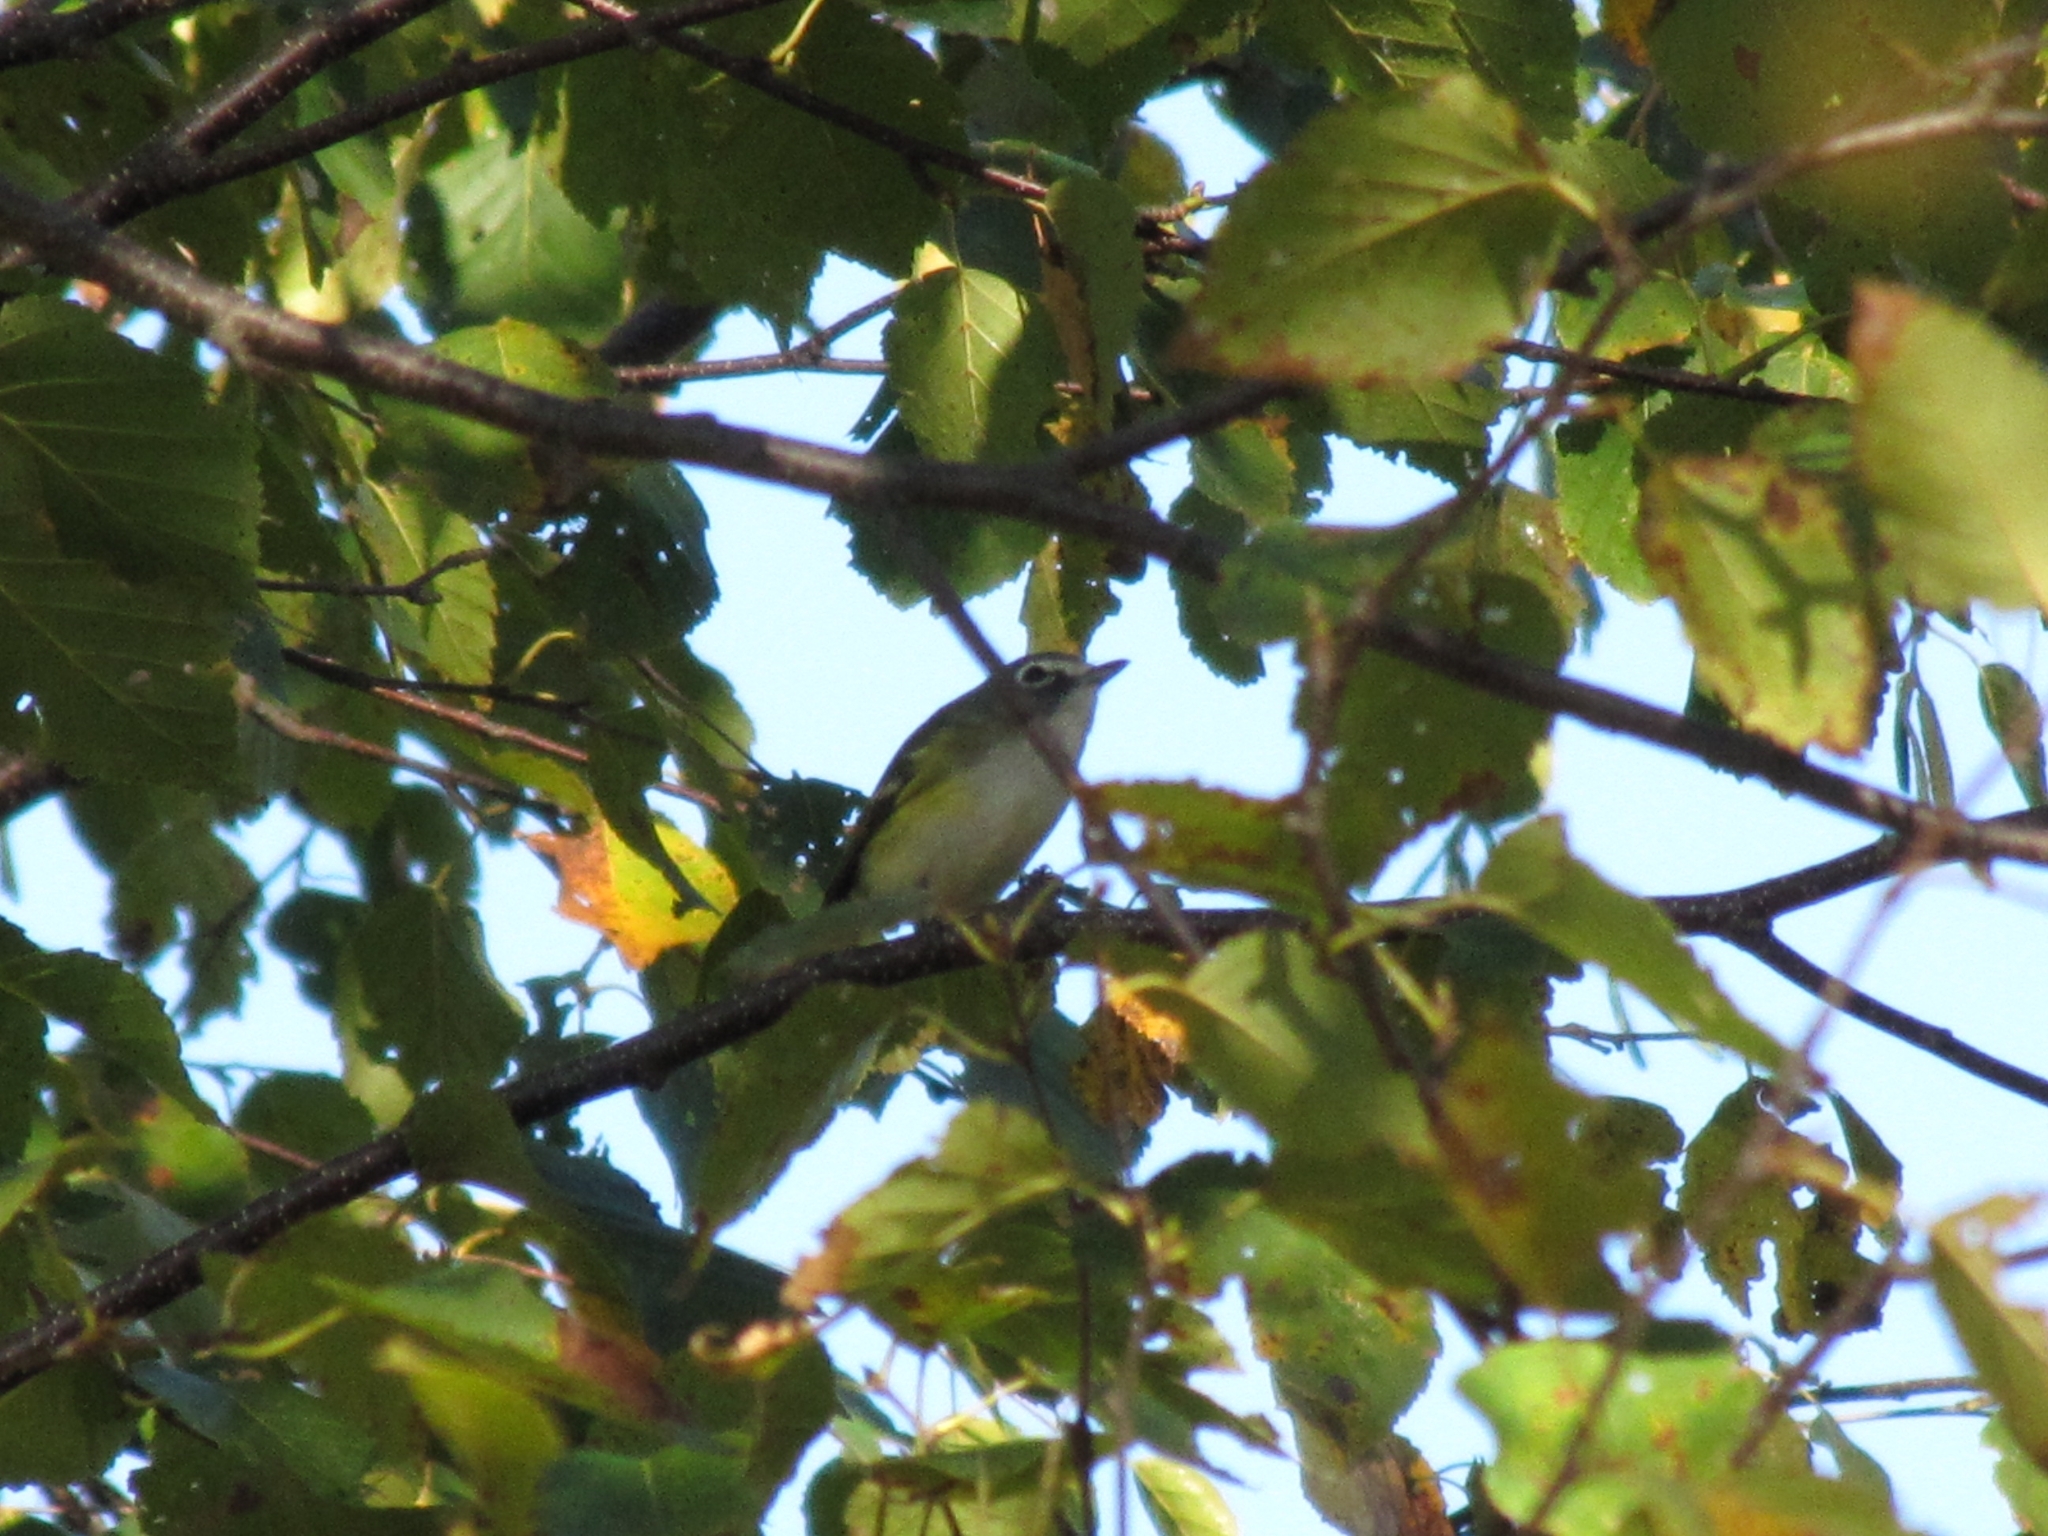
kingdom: Animalia
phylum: Chordata
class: Aves
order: Passeriformes
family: Vireonidae
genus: Vireo
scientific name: Vireo solitarius
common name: Blue-headed vireo
